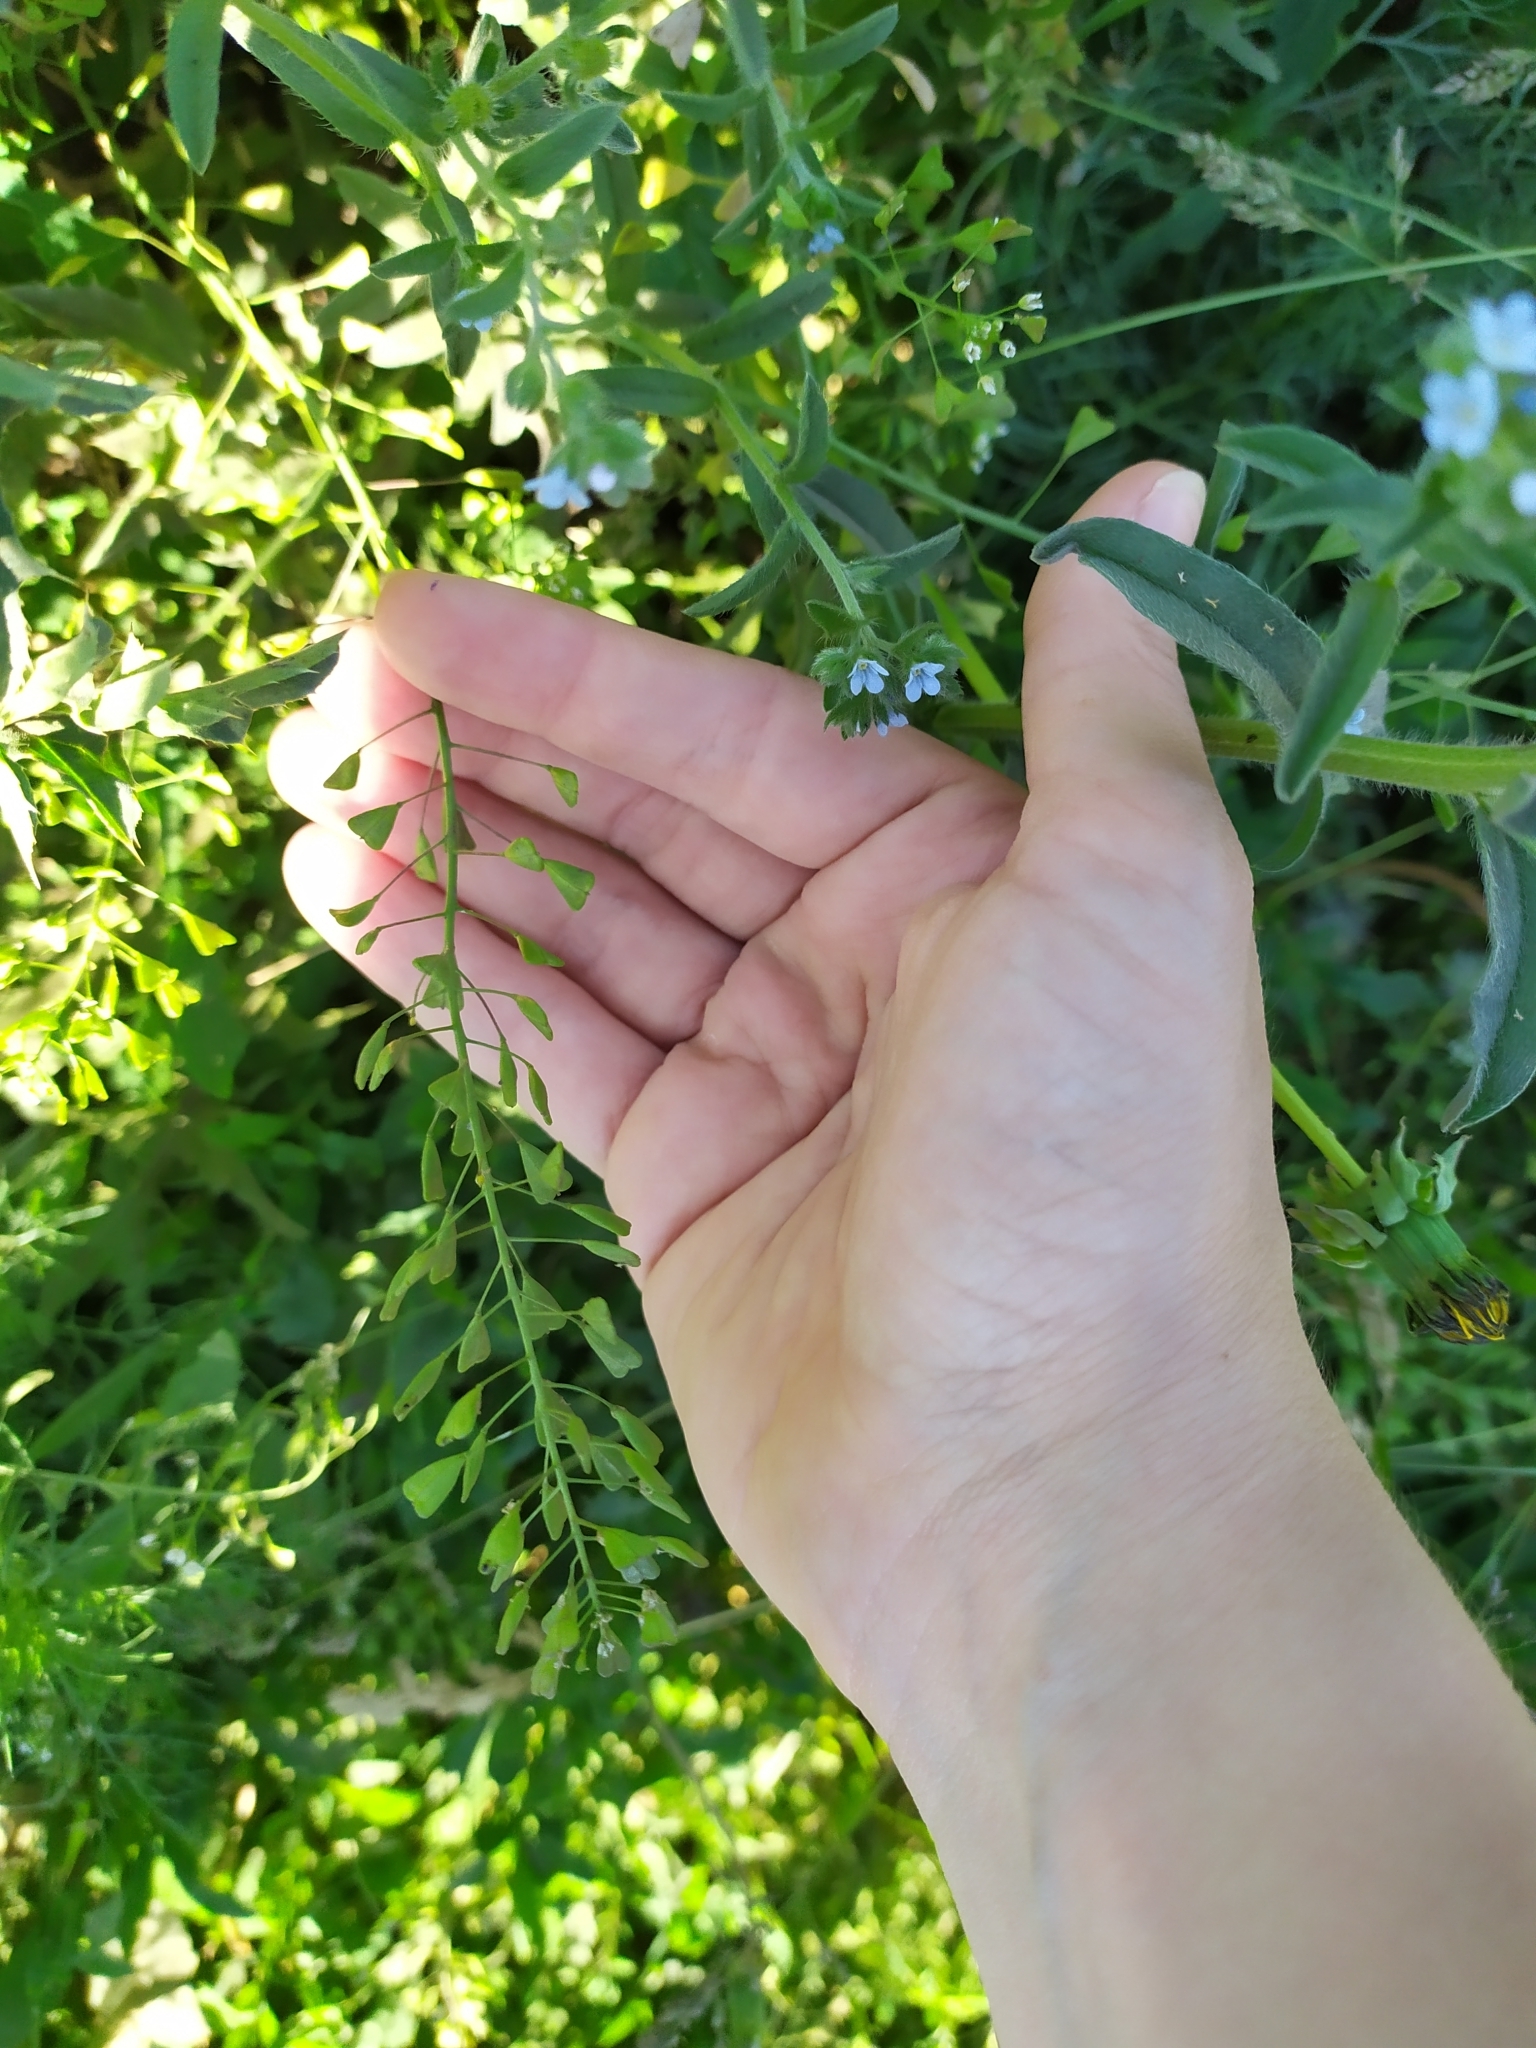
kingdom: Plantae
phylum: Tracheophyta
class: Magnoliopsida
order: Brassicales
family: Brassicaceae
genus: Capsella
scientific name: Capsella bursa-pastoris
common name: Shepherd's purse
